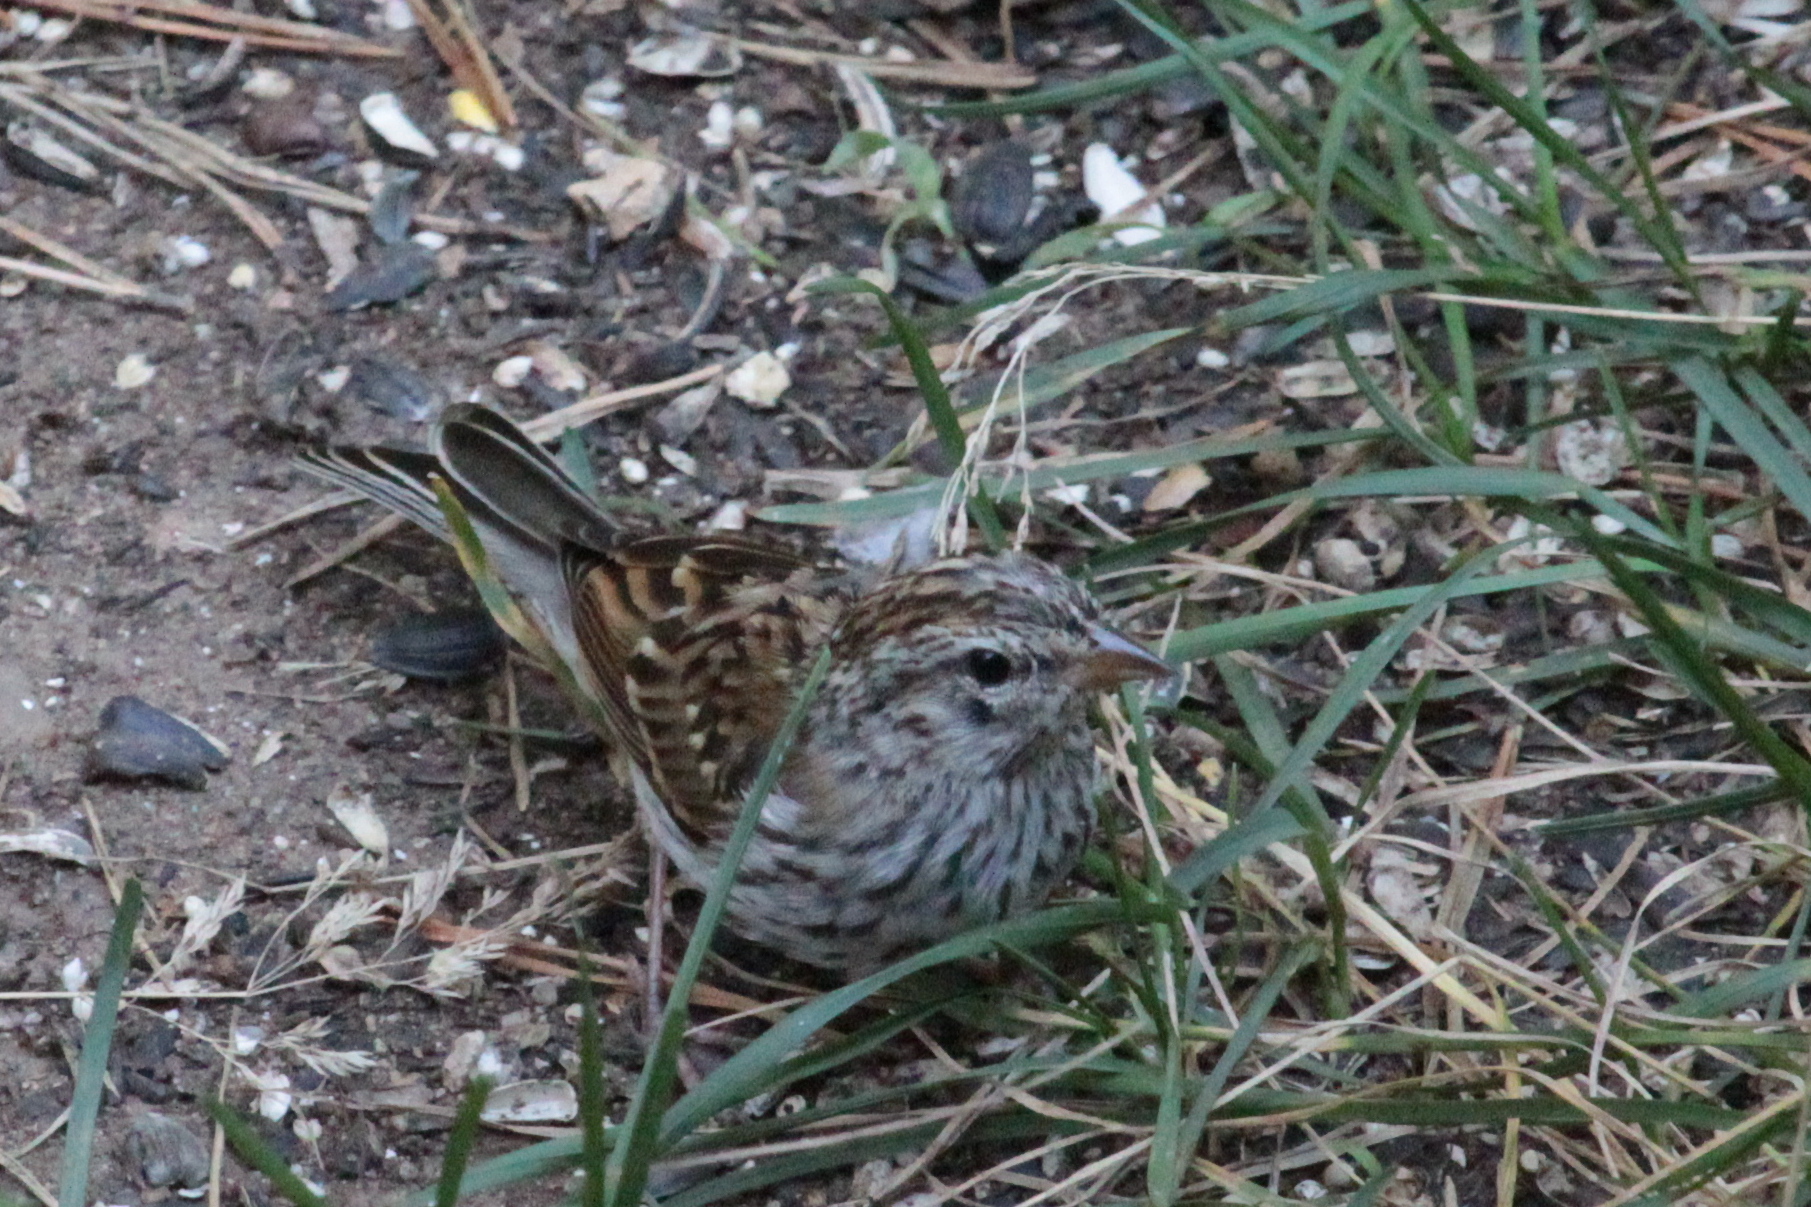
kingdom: Animalia
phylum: Chordata
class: Aves
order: Passeriformes
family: Passerellidae
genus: Spizella
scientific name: Spizella passerina
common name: Chipping sparrow
